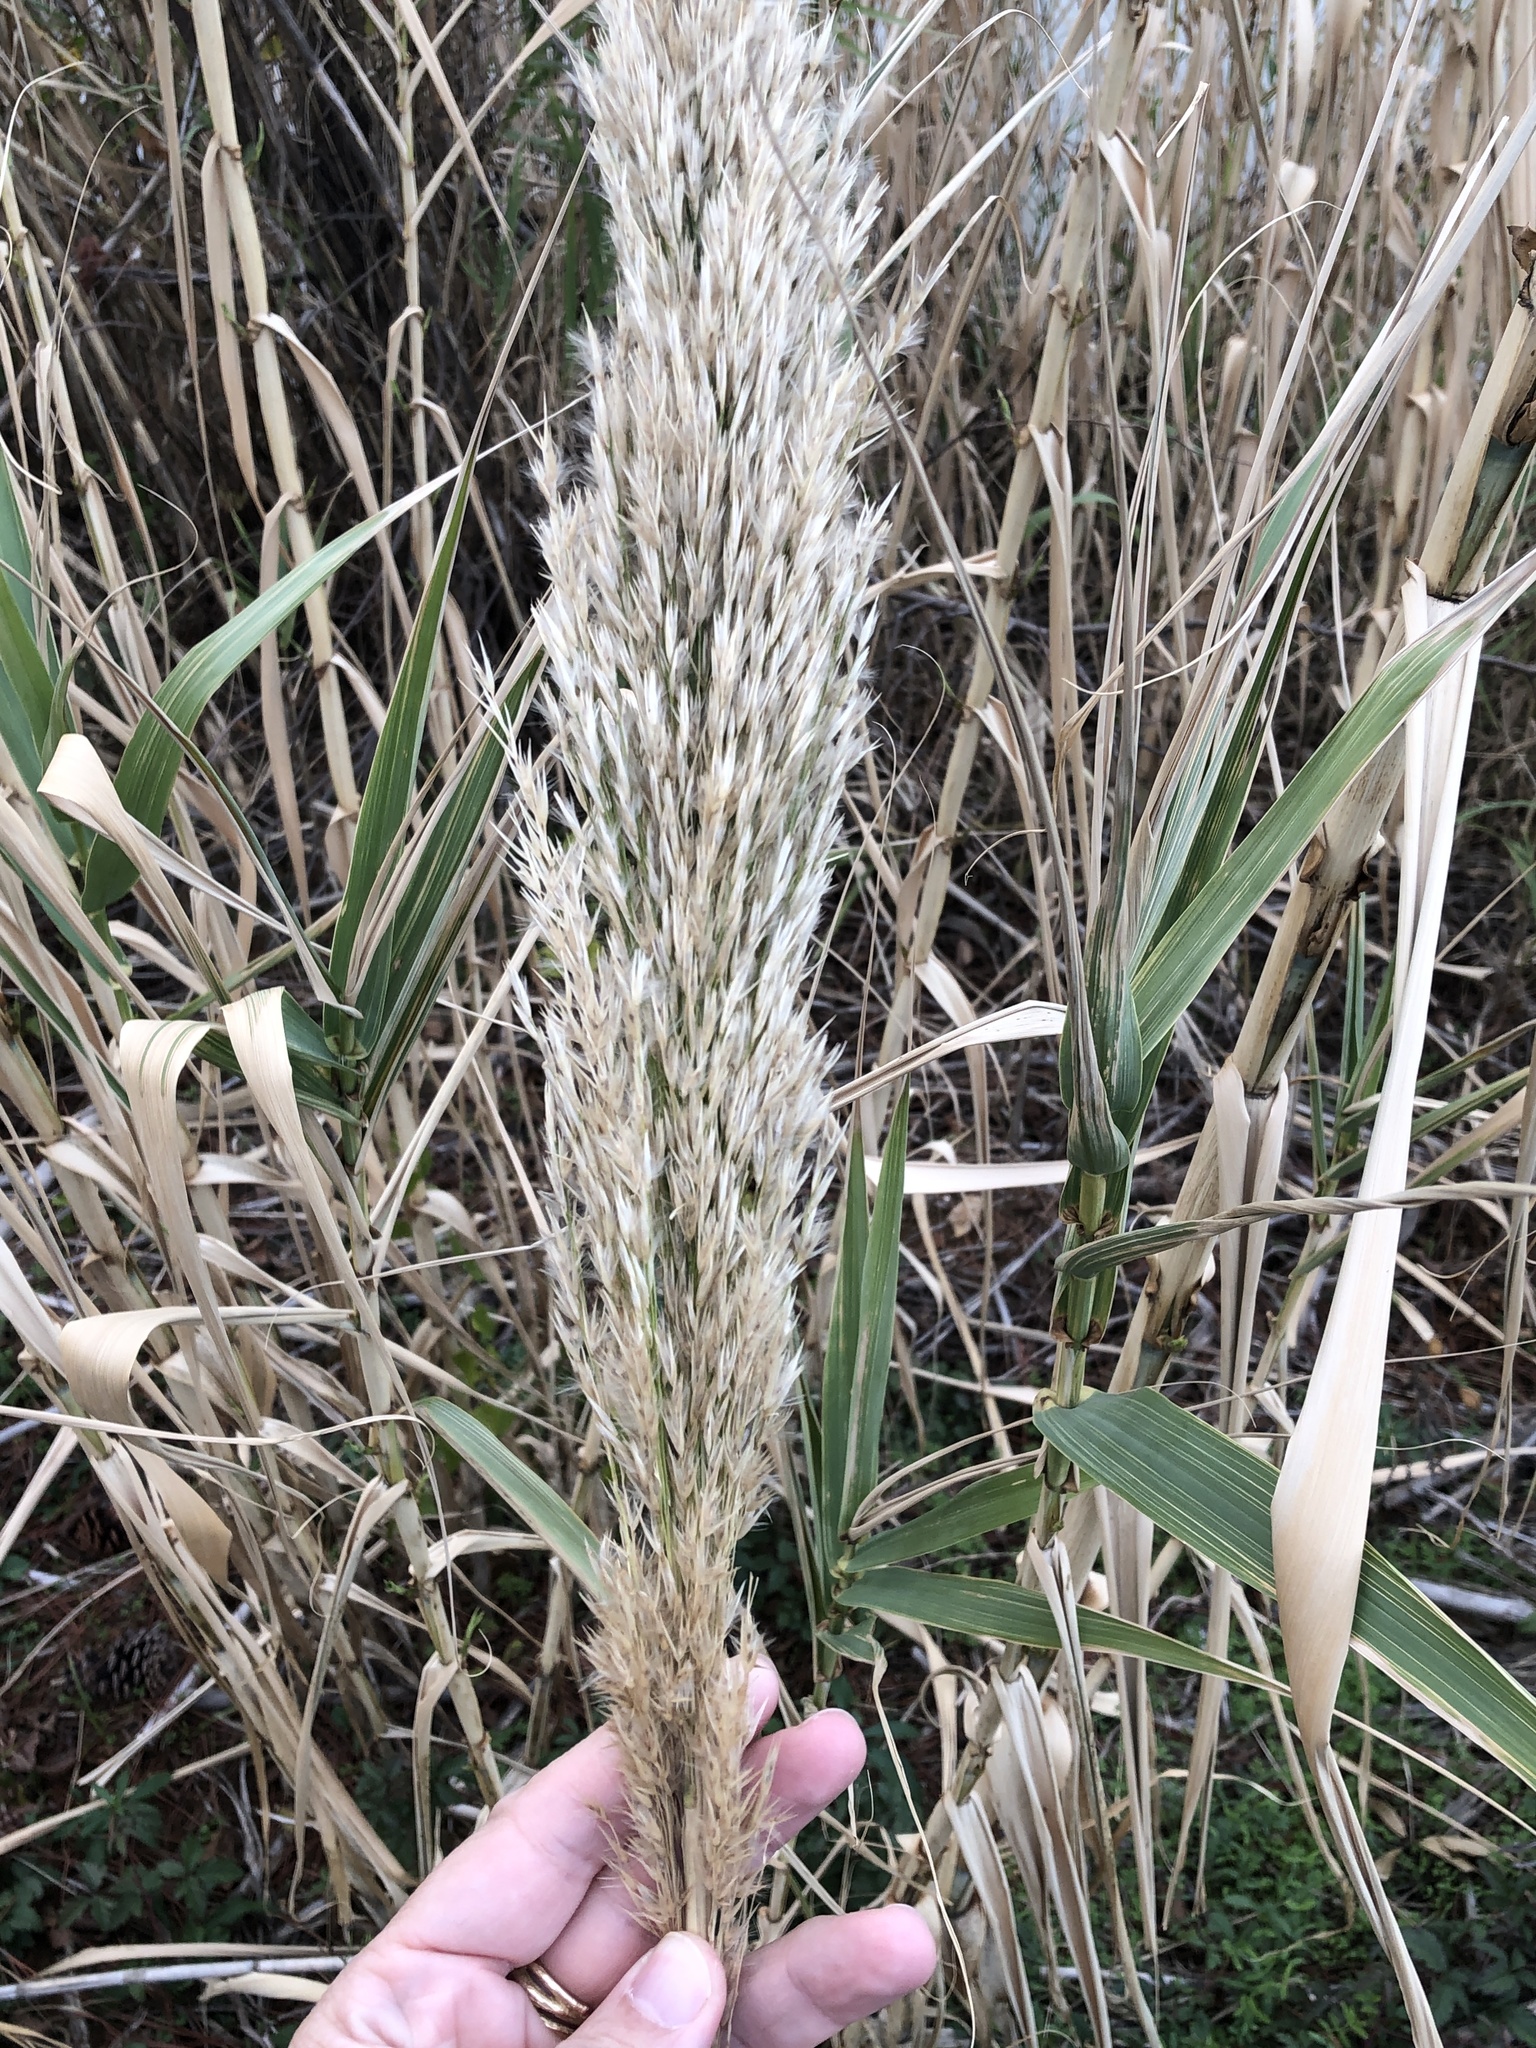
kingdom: Plantae
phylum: Tracheophyta
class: Liliopsida
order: Poales
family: Poaceae
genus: Arundo
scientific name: Arundo donax
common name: Giant reed
